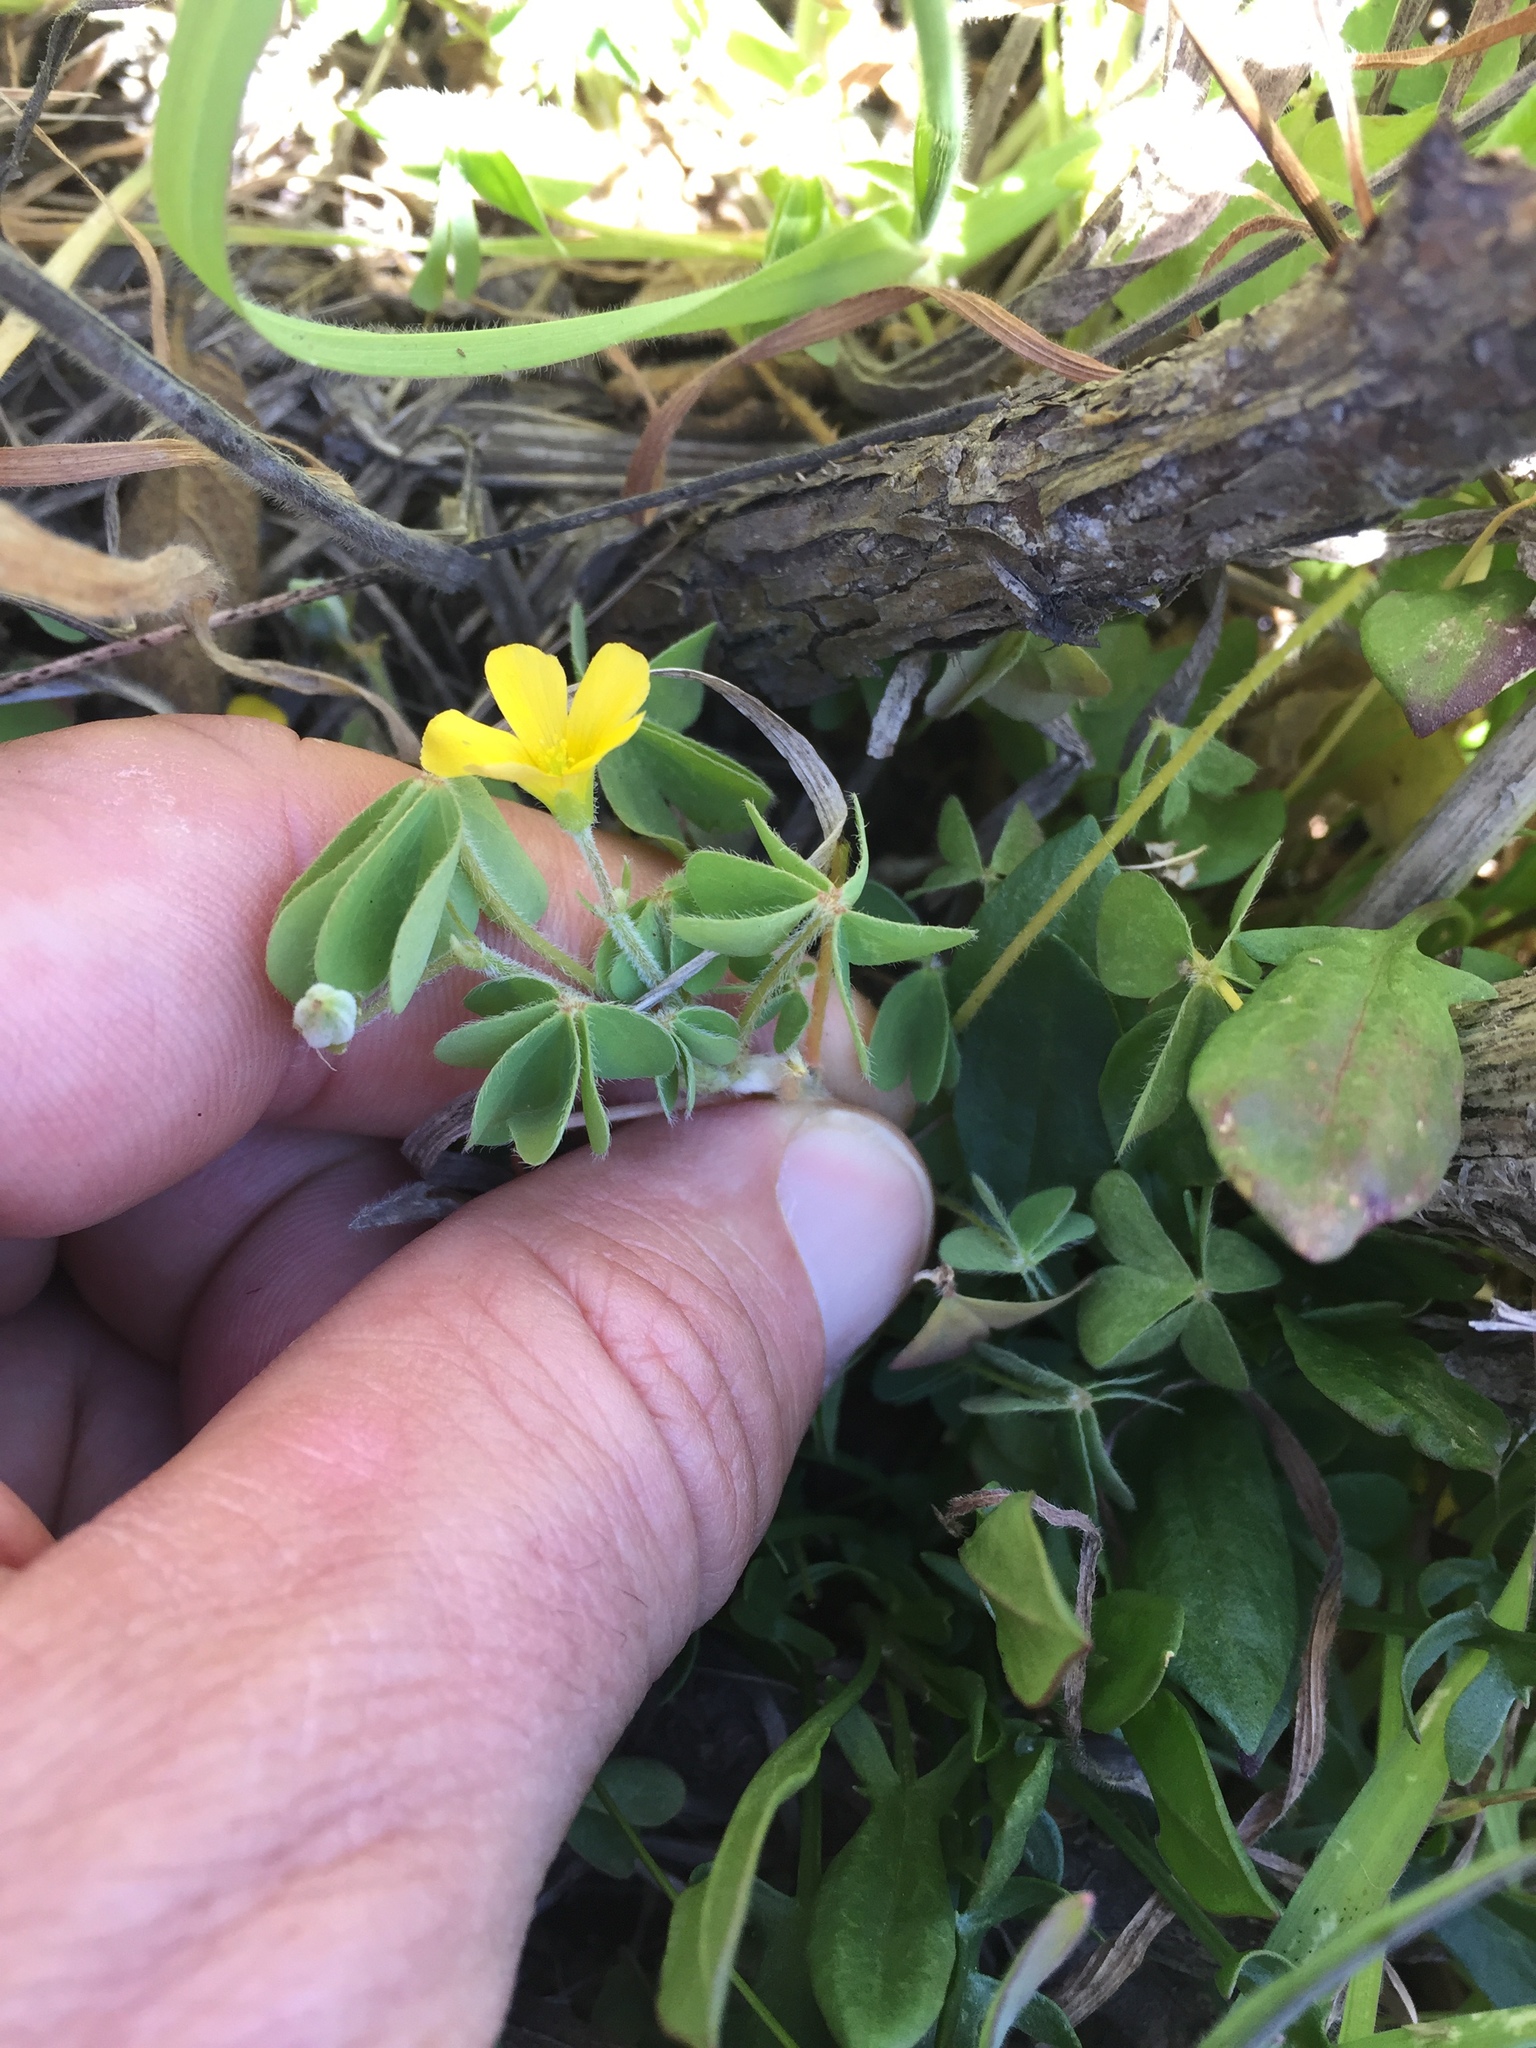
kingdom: Plantae
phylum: Tracheophyta
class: Magnoliopsida
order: Oxalidales
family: Oxalidaceae
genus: Oxalis
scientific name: Oxalis pilosa
